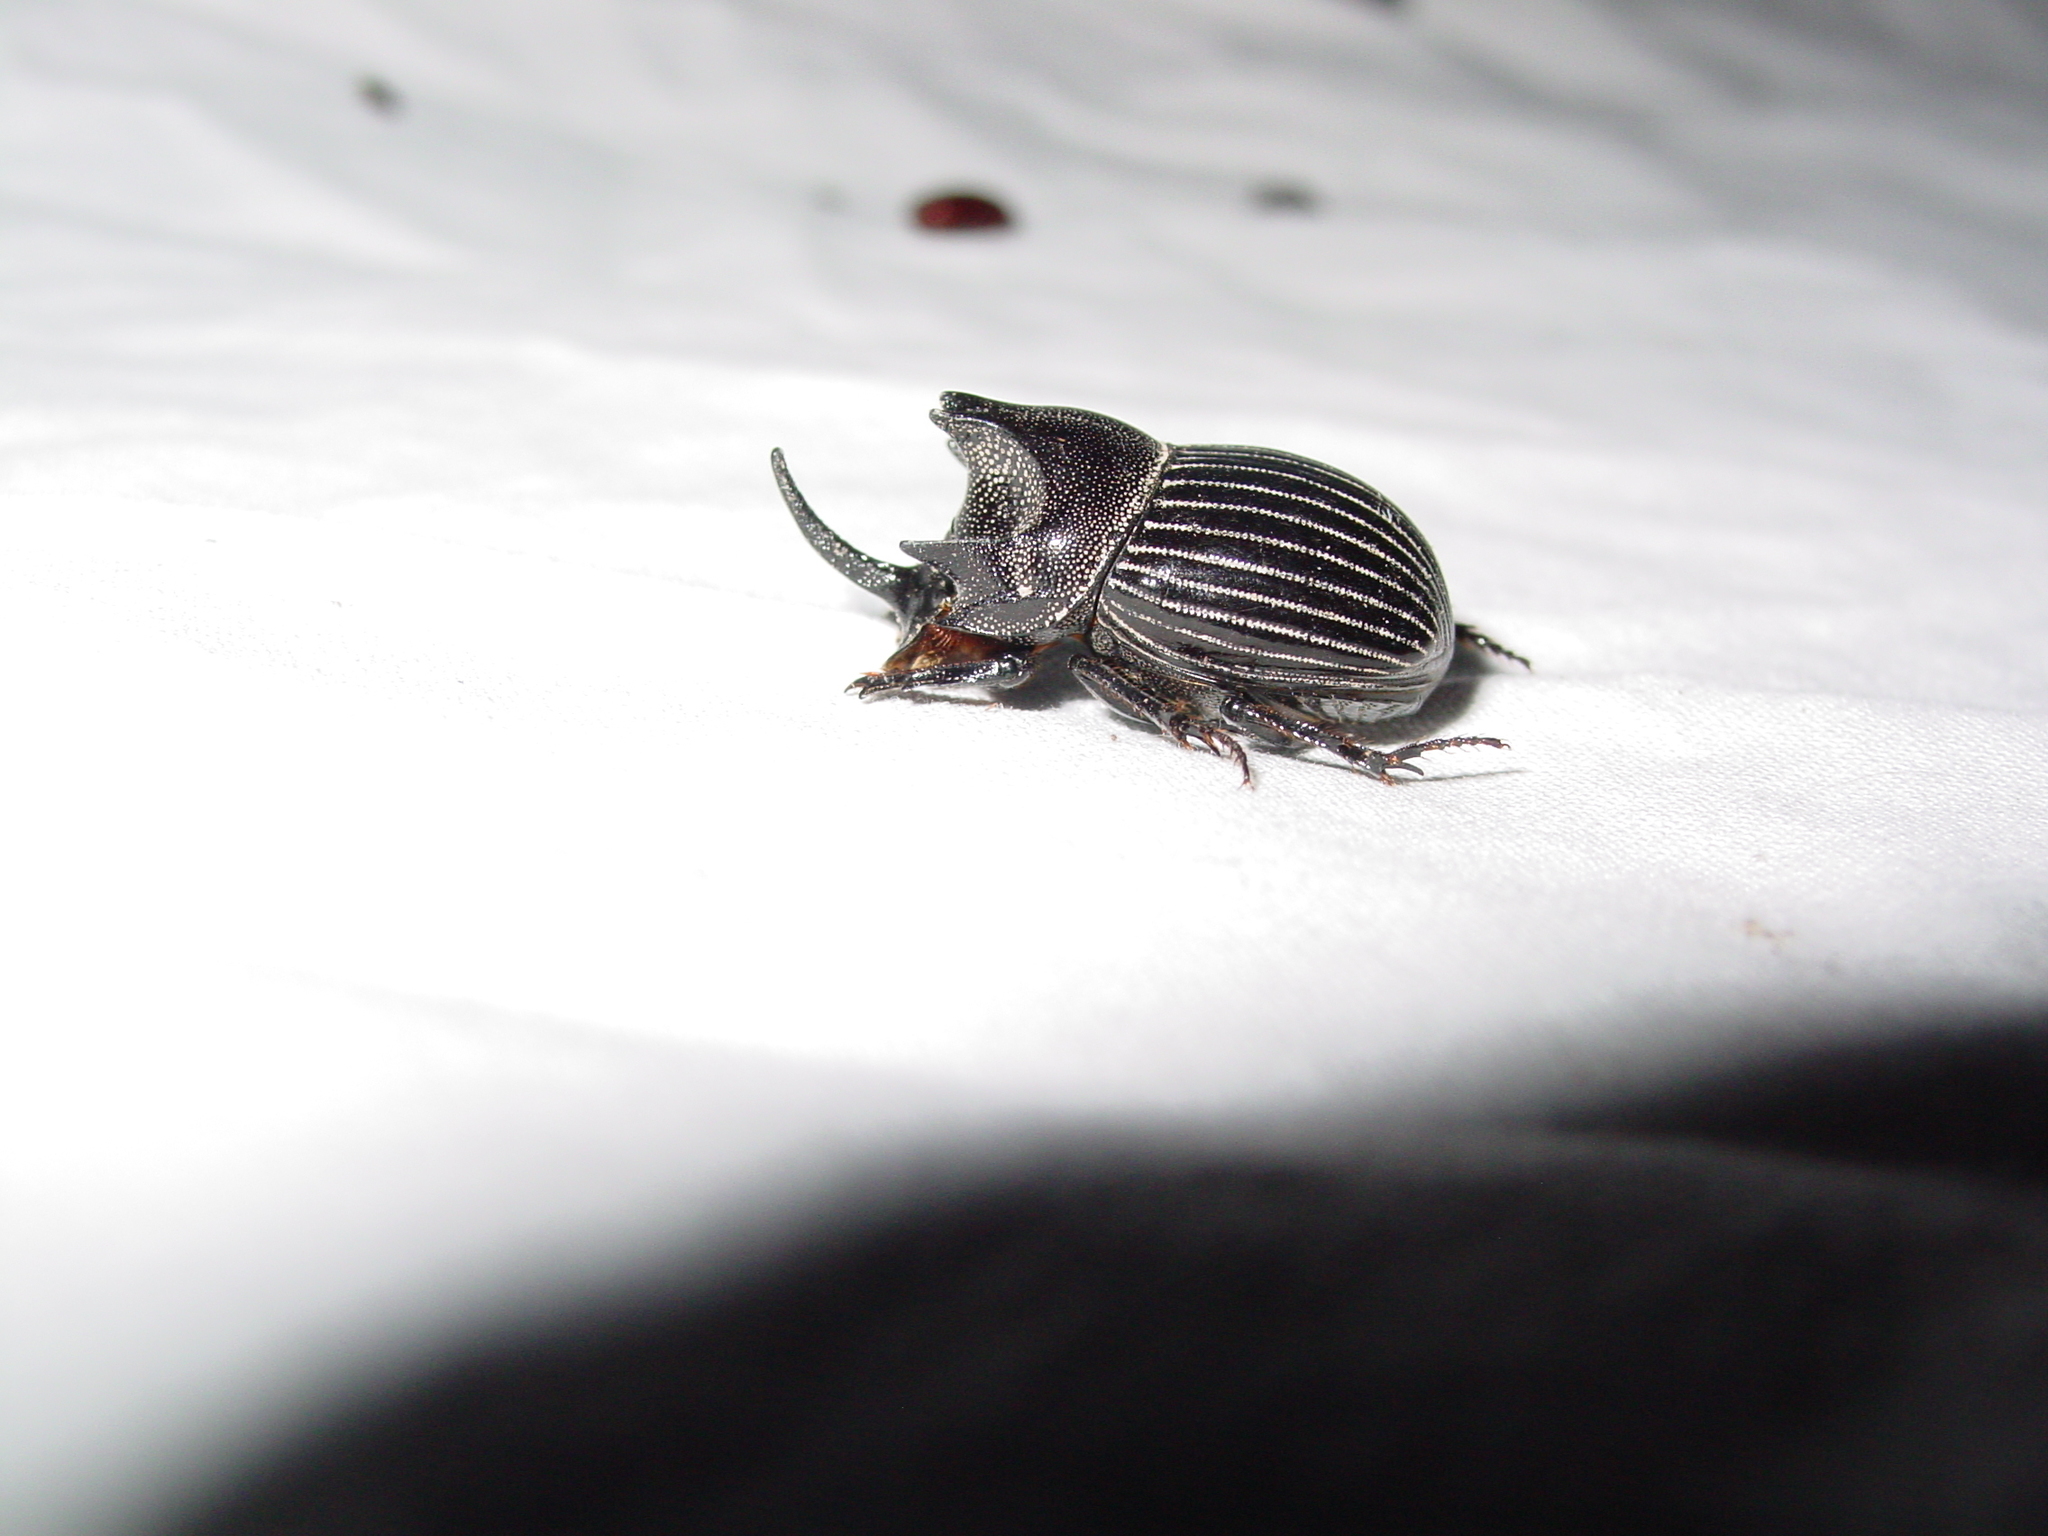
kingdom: Animalia
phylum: Arthropoda
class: Insecta
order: Coleoptera
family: Scarabaeidae
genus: Copris
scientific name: Copris arizonensis
